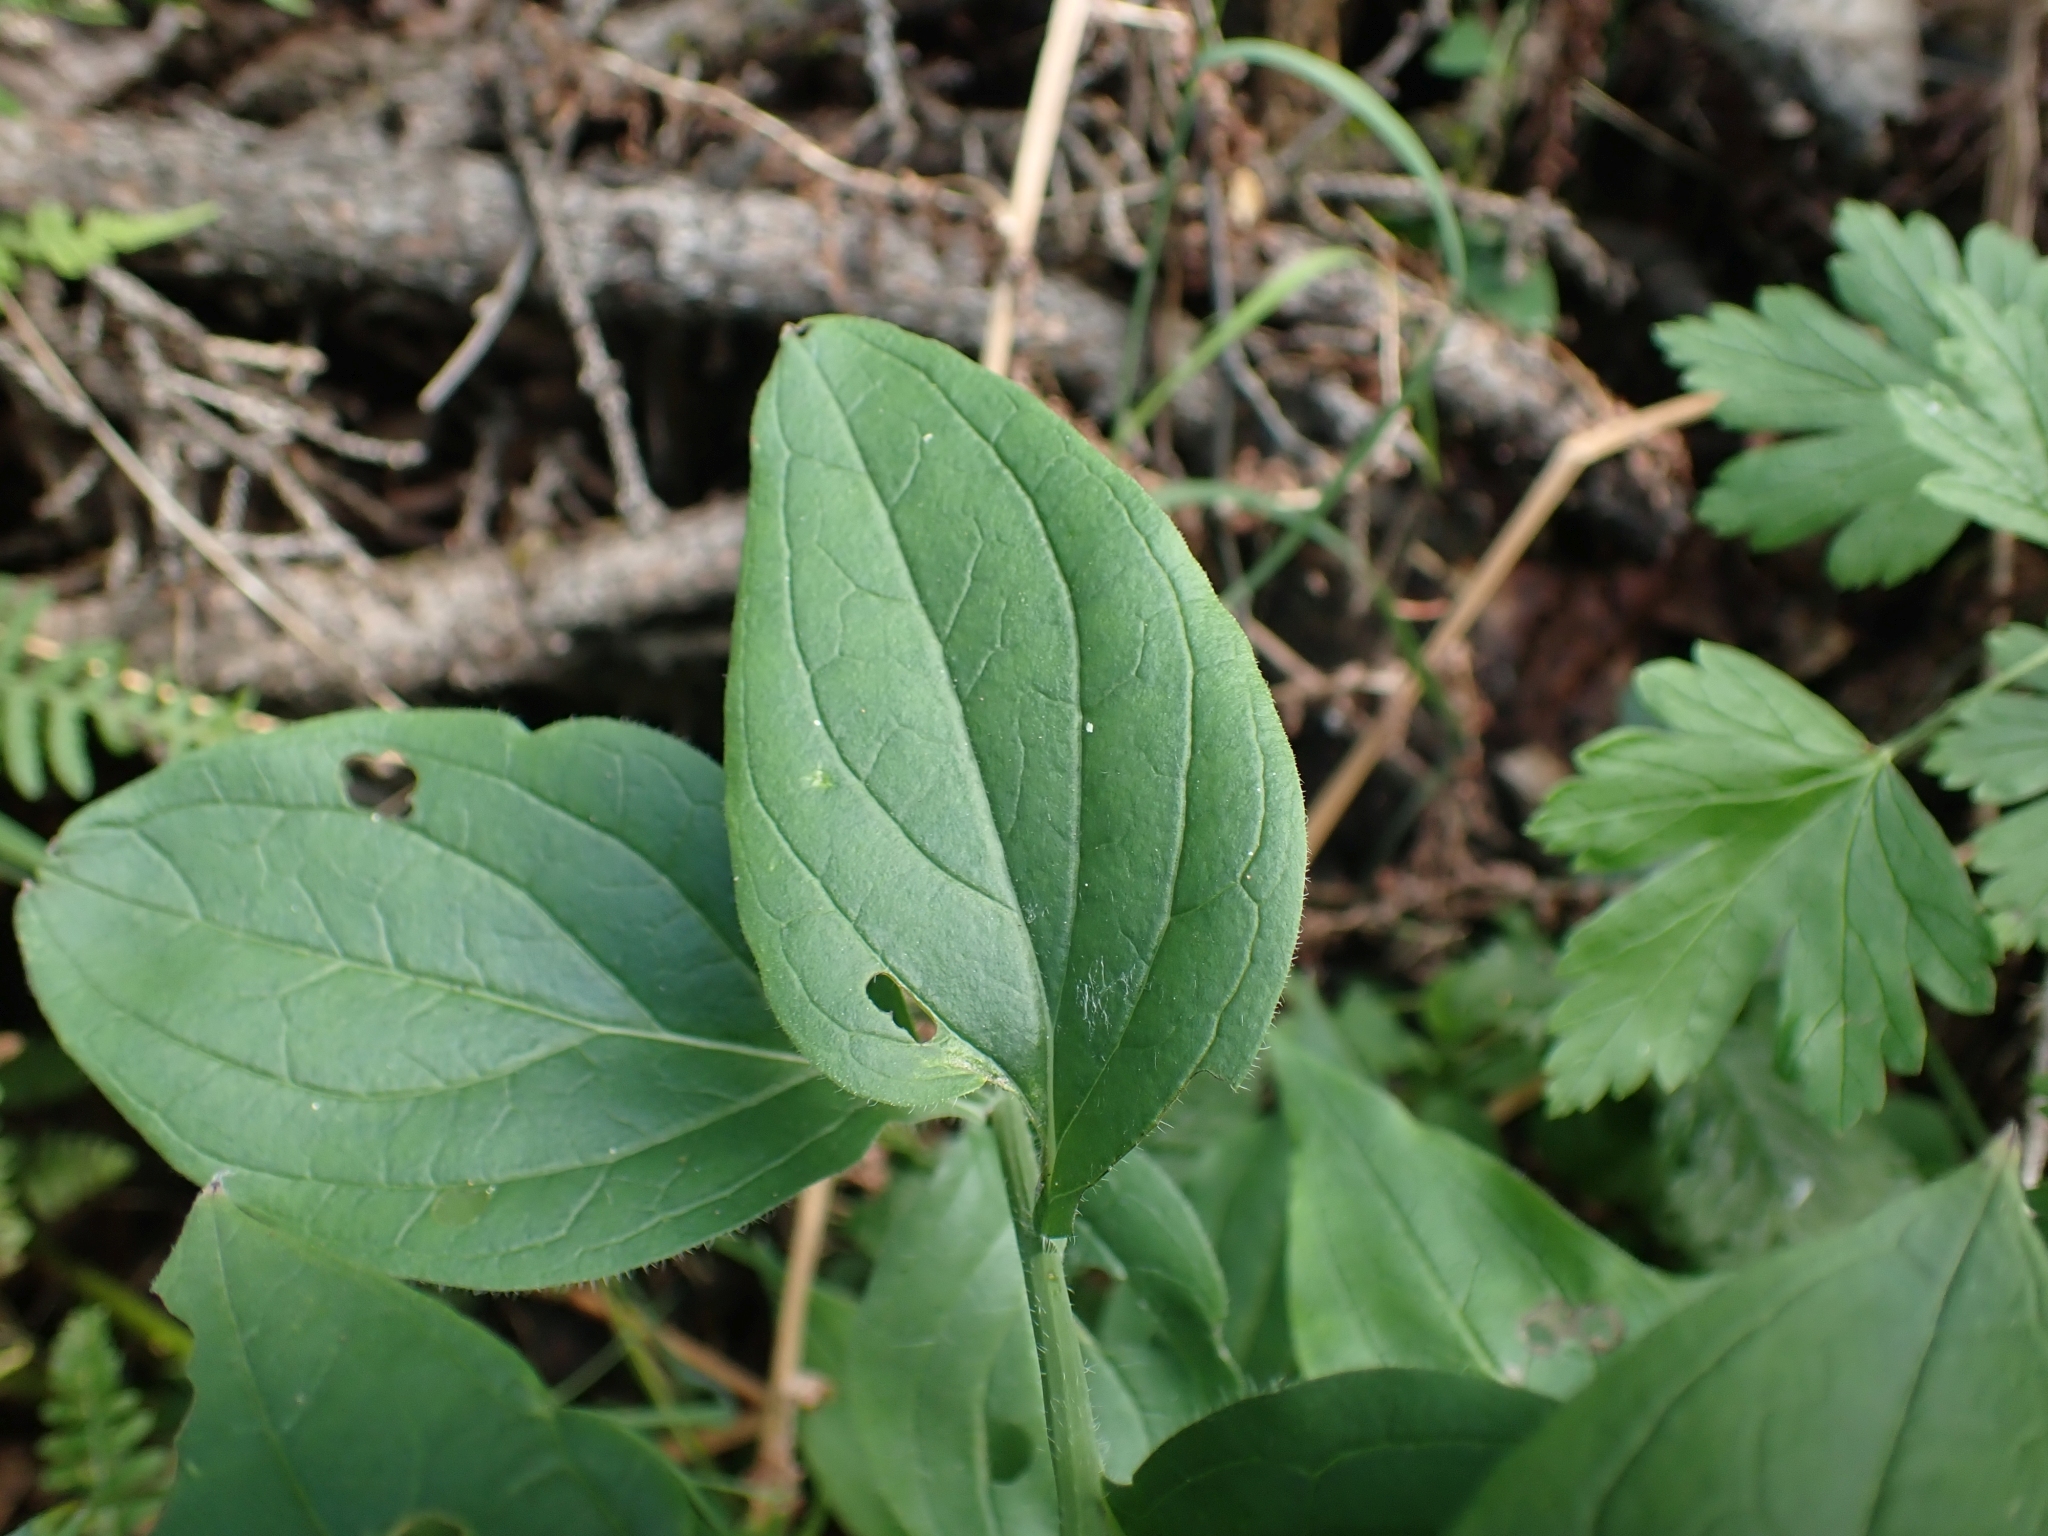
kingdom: Plantae
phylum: Tracheophyta
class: Magnoliopsida
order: Boraginales
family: Boraginaceae
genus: Mertensia
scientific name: Mertensia paniculata
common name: Panicled bluebells
